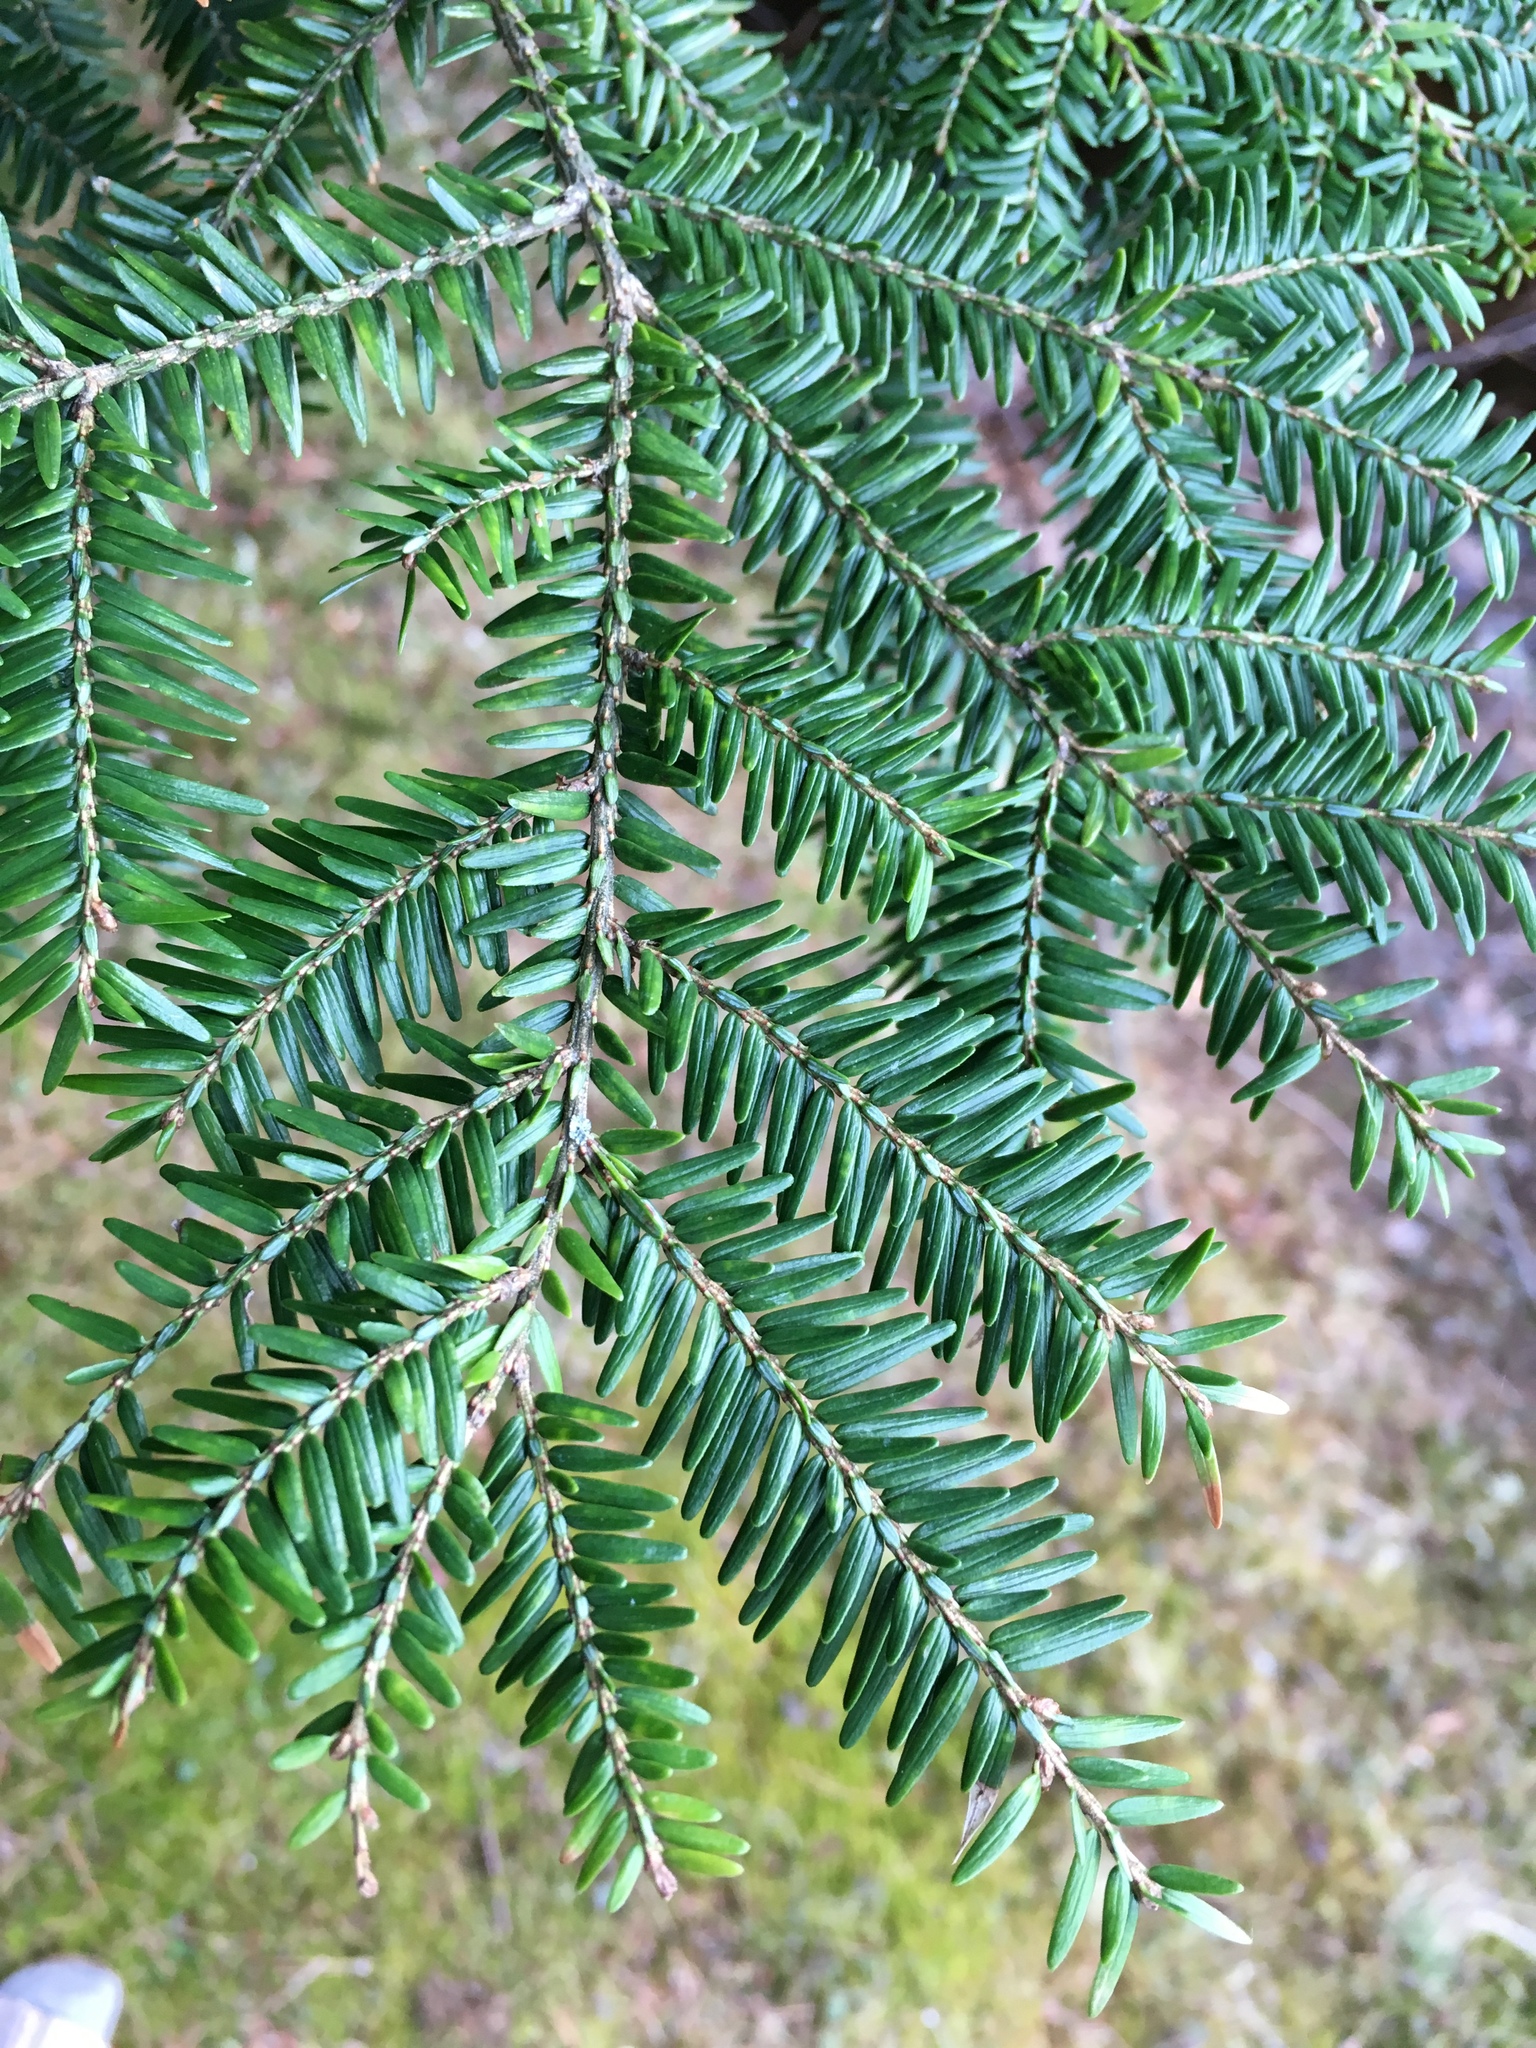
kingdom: Plantae
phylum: Tracheophyta
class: Pinopsida
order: Pinales
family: Pinaceae
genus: Tsuga
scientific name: Tsuga canadensis
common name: Eastern hemlock
